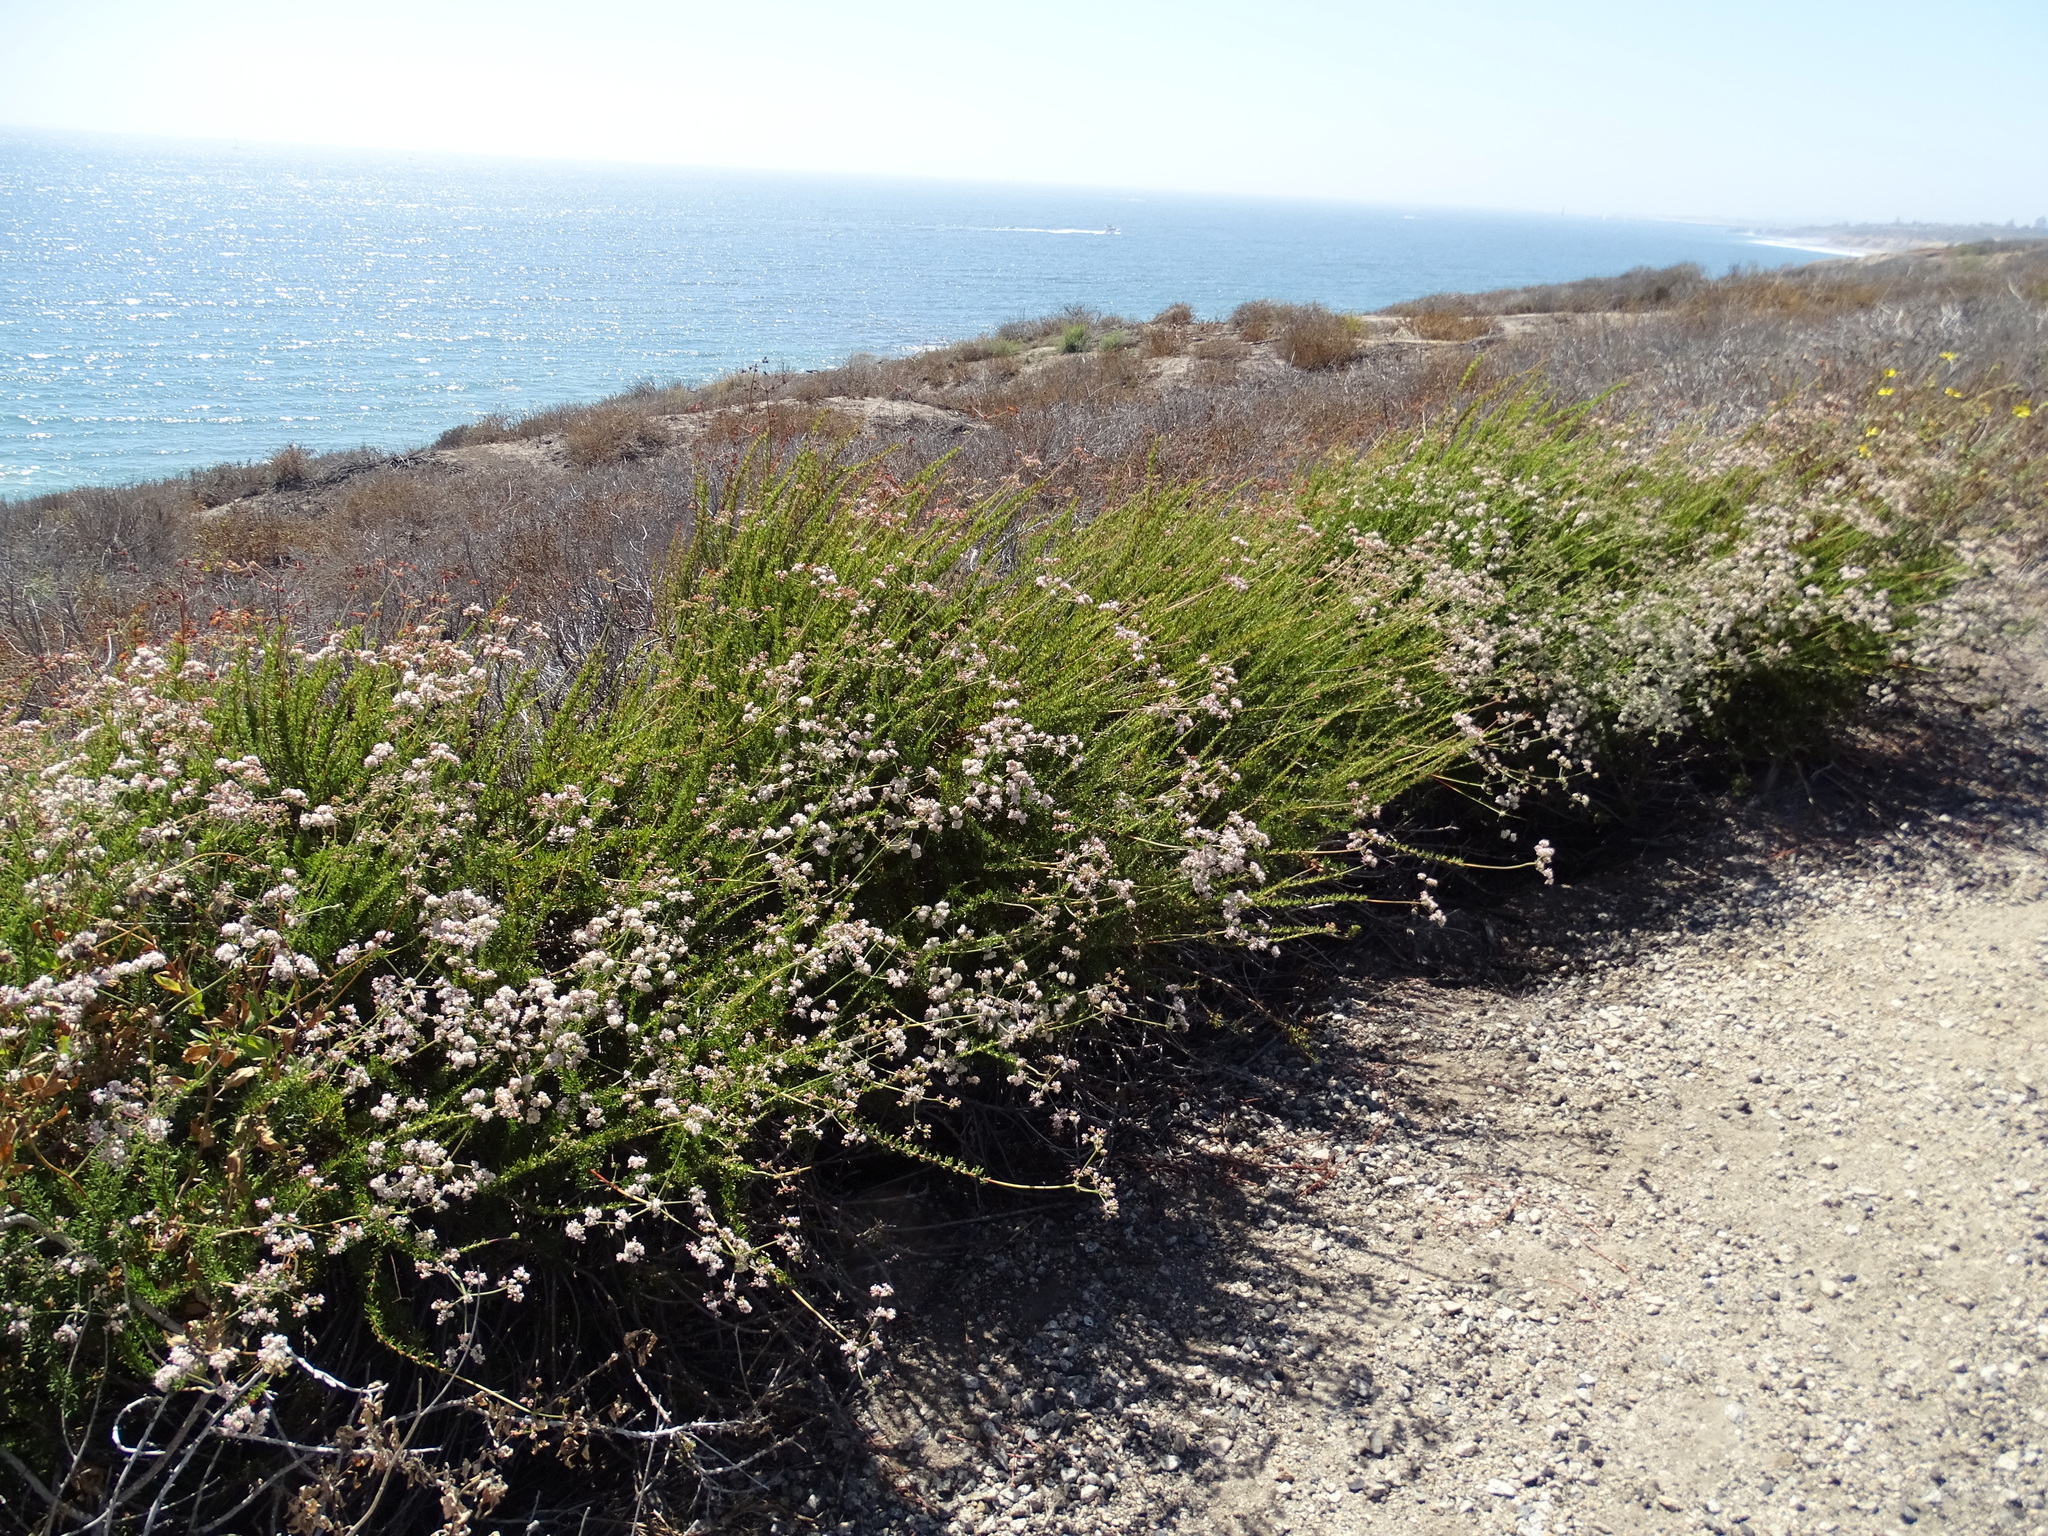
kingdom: Plantae
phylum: Tracheophyta
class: Magnoliopsida
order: Caryophyllales
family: Polygonaceae
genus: Eriogonum
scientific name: Eriogonum fasciculatum
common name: California wild buckwheat
